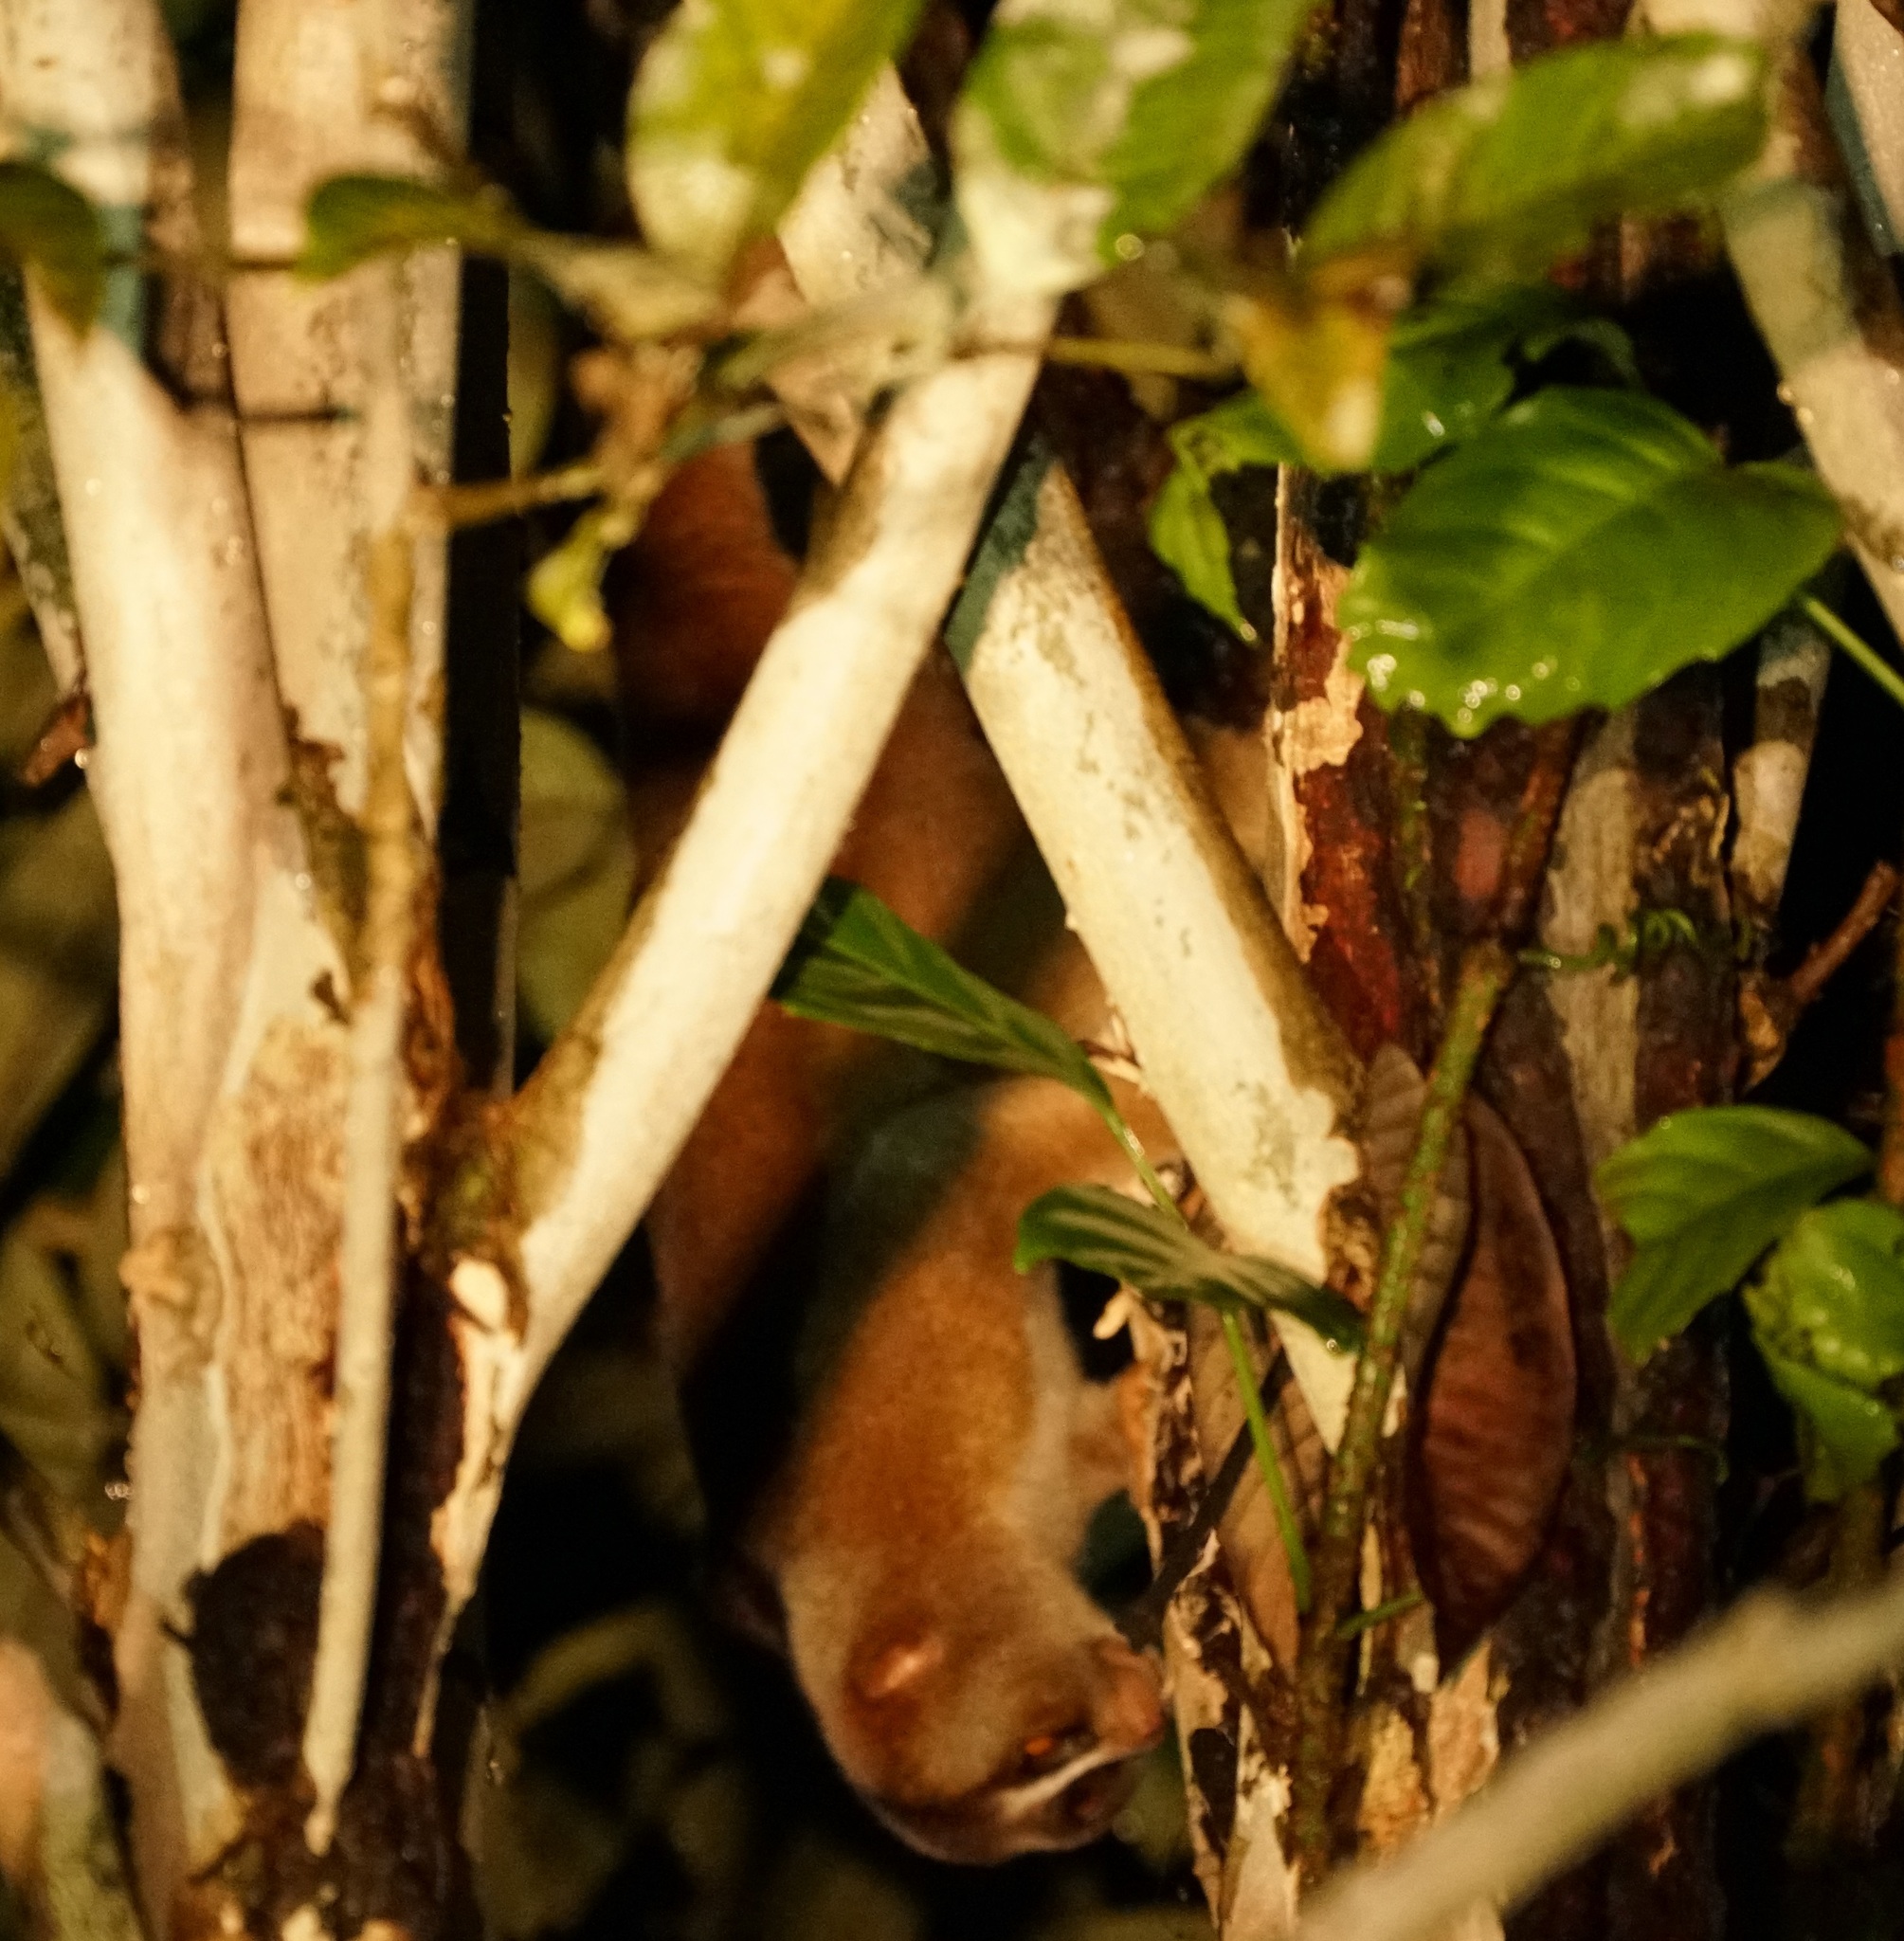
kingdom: Animalia
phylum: Chordata
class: Mammalia
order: Primates
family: Lorisidae
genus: Nycticebus
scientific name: Nycticebus menagensis
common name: Philippine slow loris
